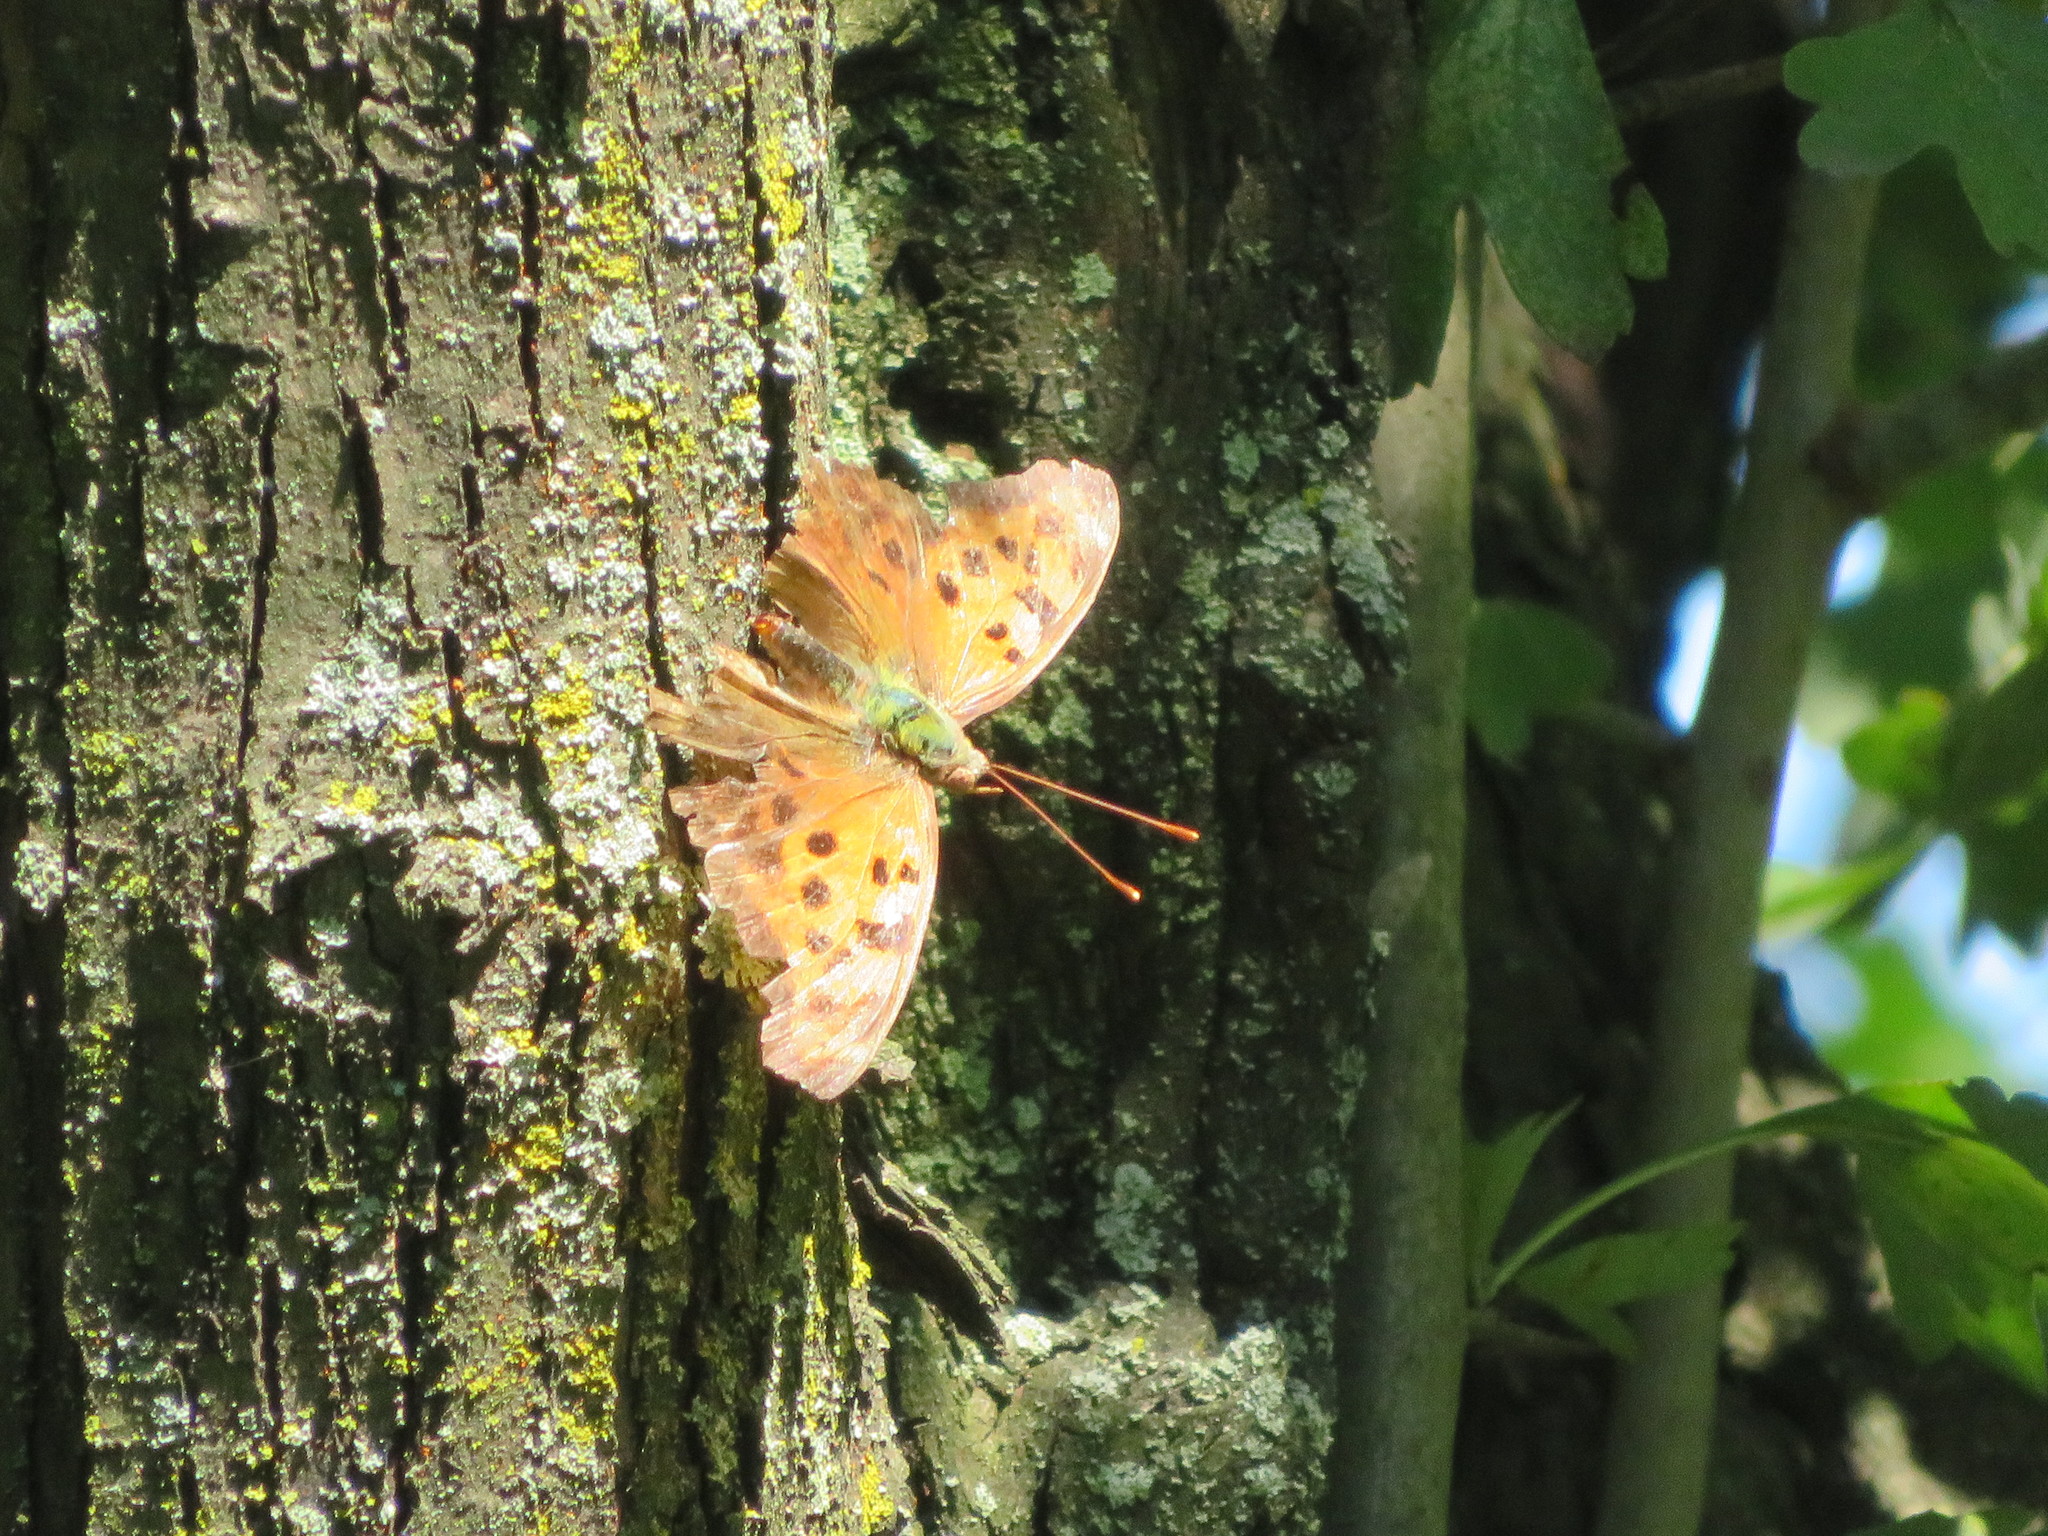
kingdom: Animalia
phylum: Arthropoda
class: Insecta
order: Lepidoptera
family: Nymphalidae
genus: Polygonia
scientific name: Polygonia interrogationis
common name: Question mark
